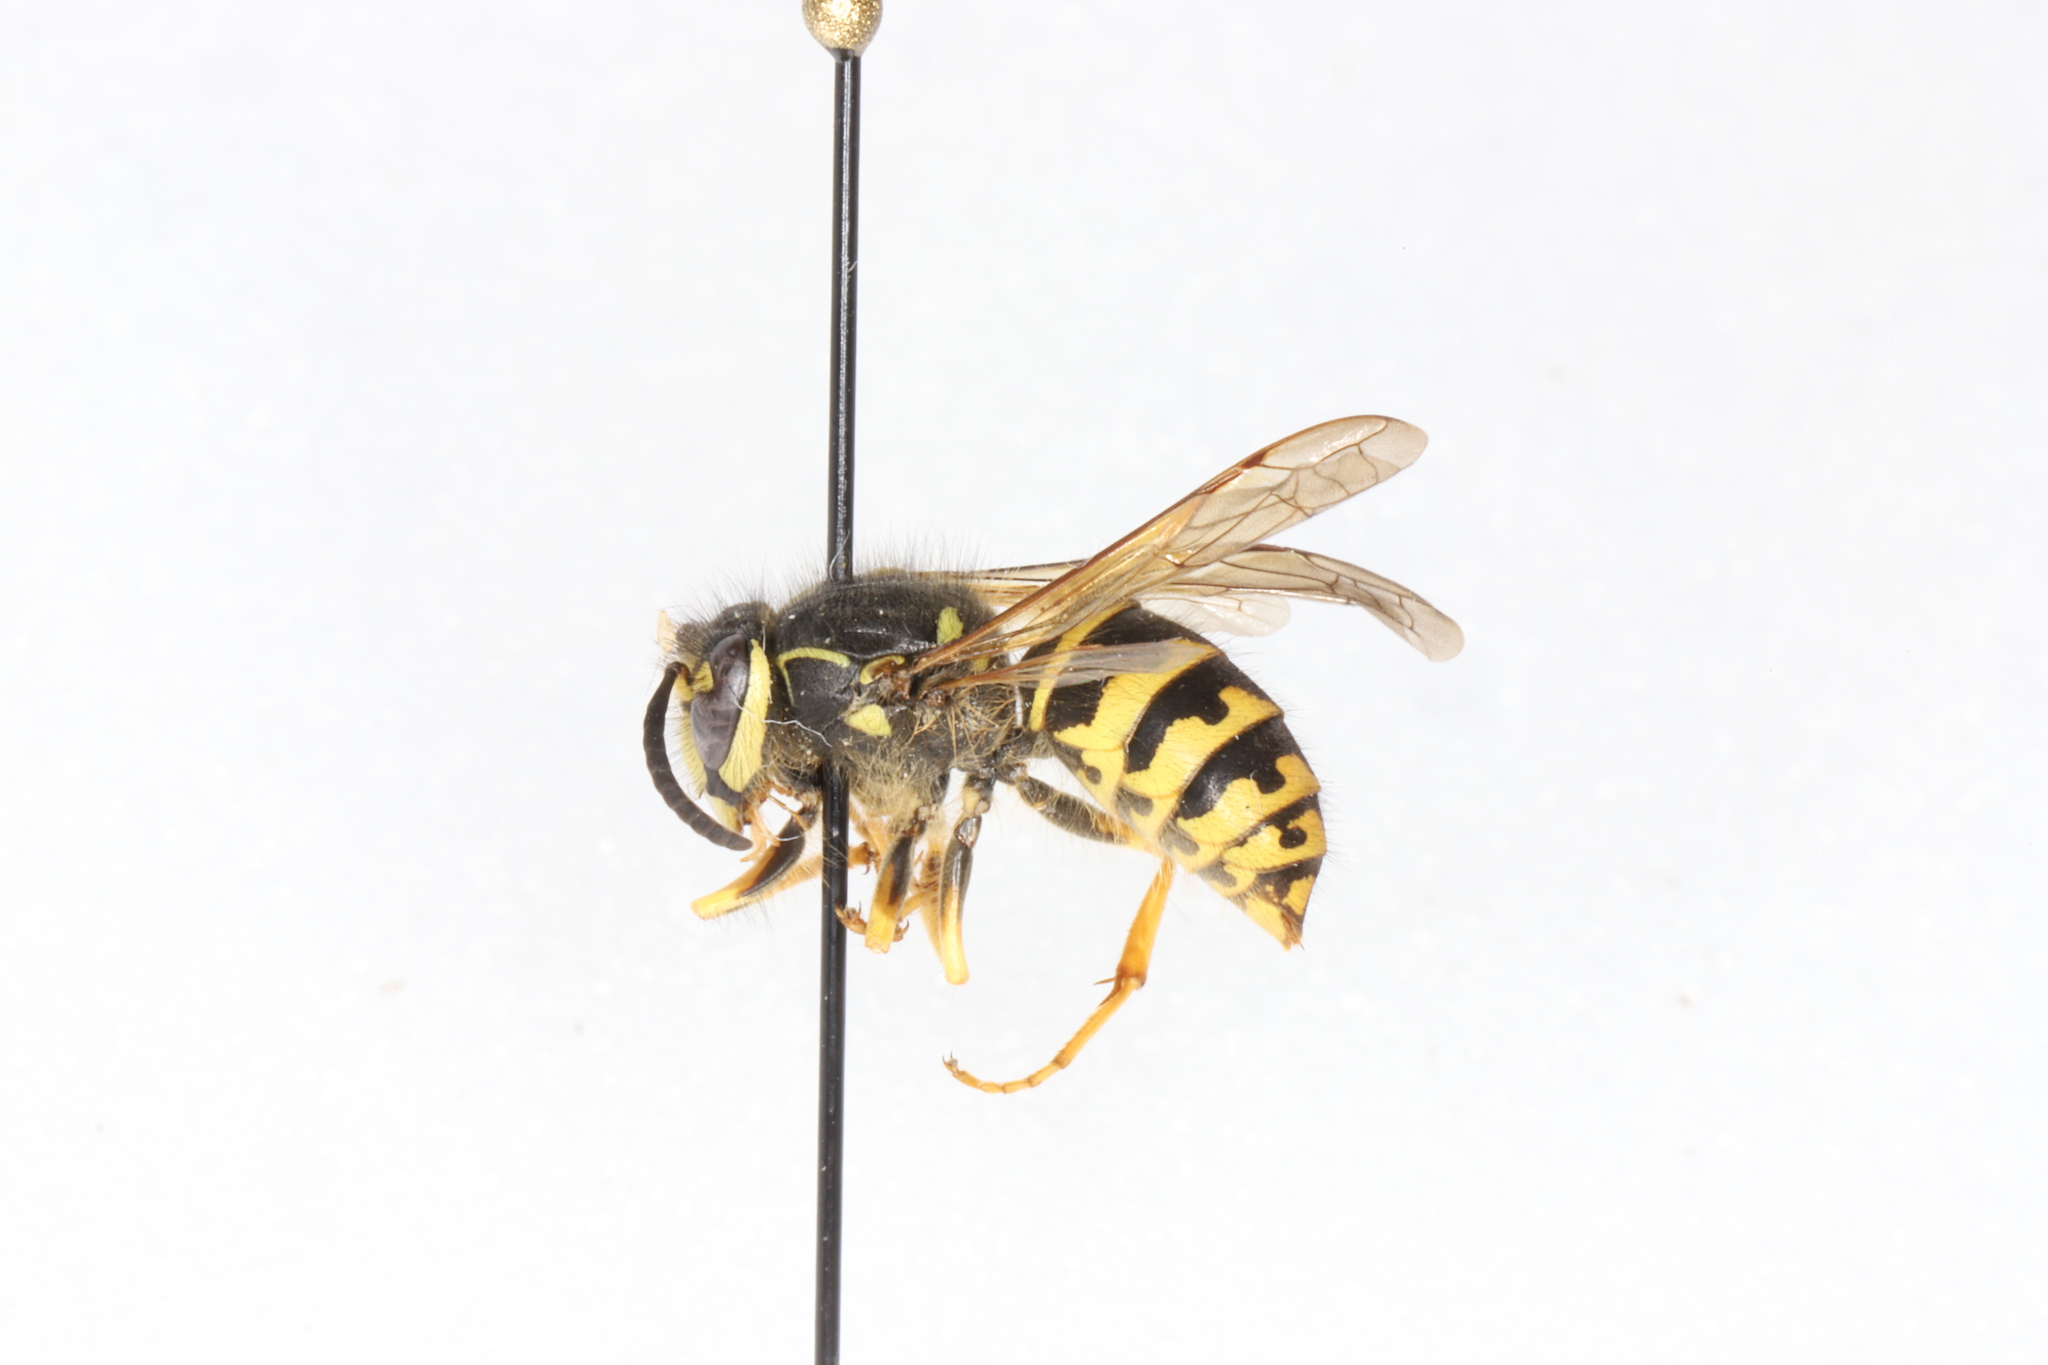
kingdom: Animalia
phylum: Arthropoda
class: Insecta
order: Hymenoptera
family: Vespidae
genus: Dolichovespula
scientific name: Dolichovespula arenaria
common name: Aerial yellowjacket
